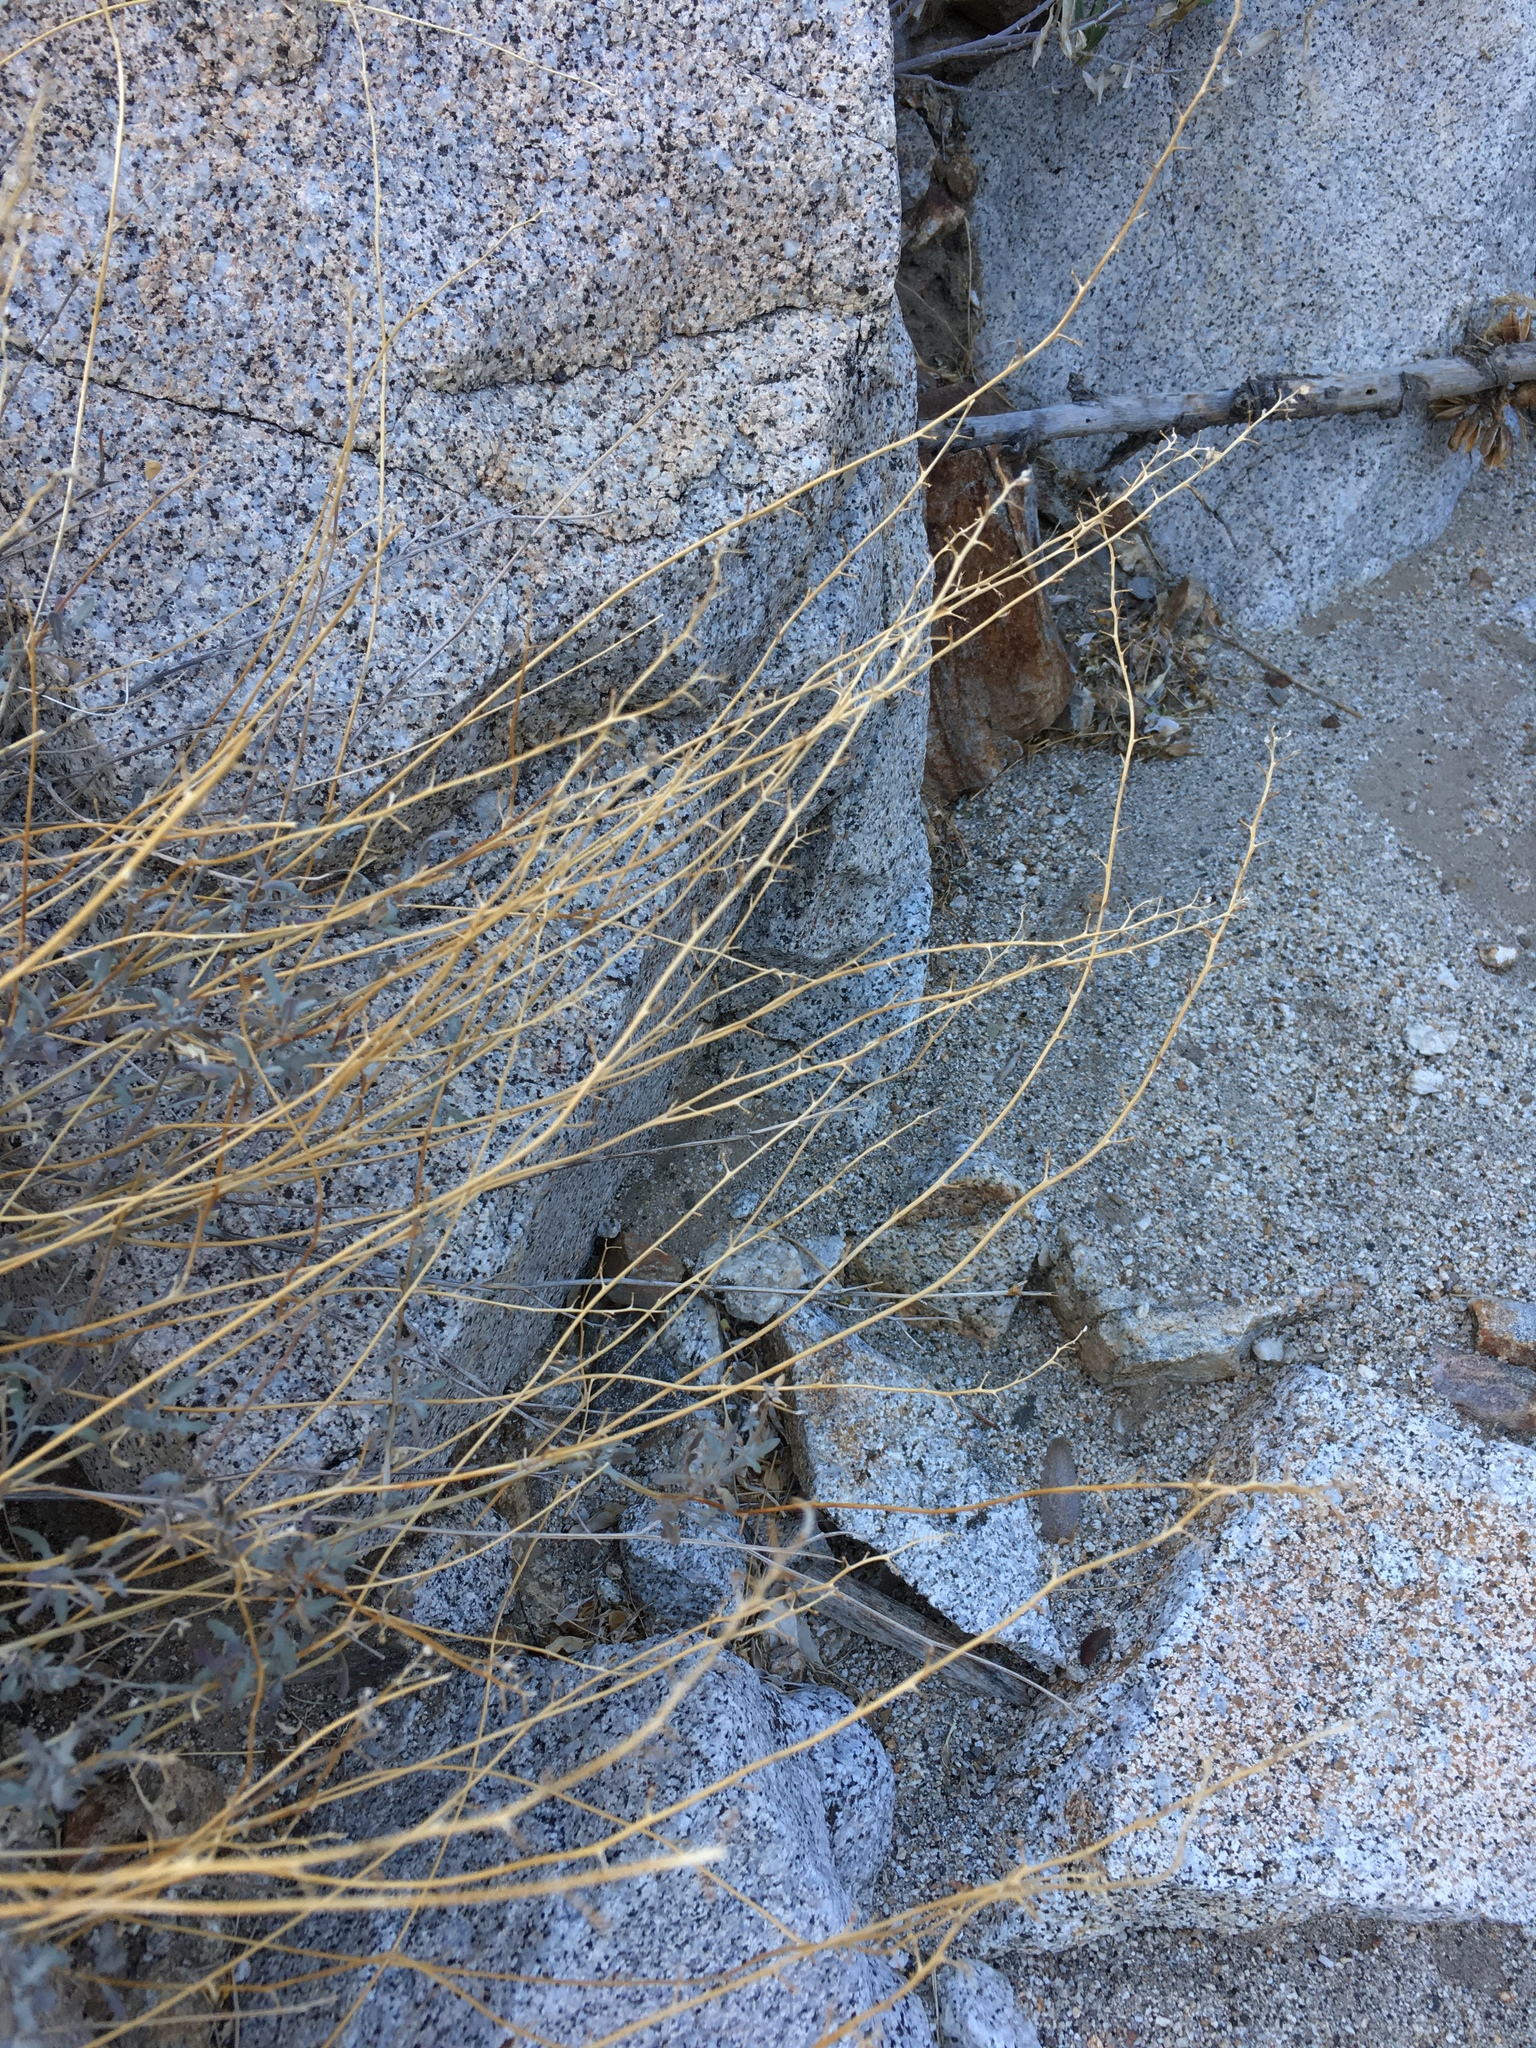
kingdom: Plantae
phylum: Tracheophyta
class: Magnoliopsida
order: Brassicales
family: Brassicaceae
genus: Lyrocarpa
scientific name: Lyrocarpa coulteri
